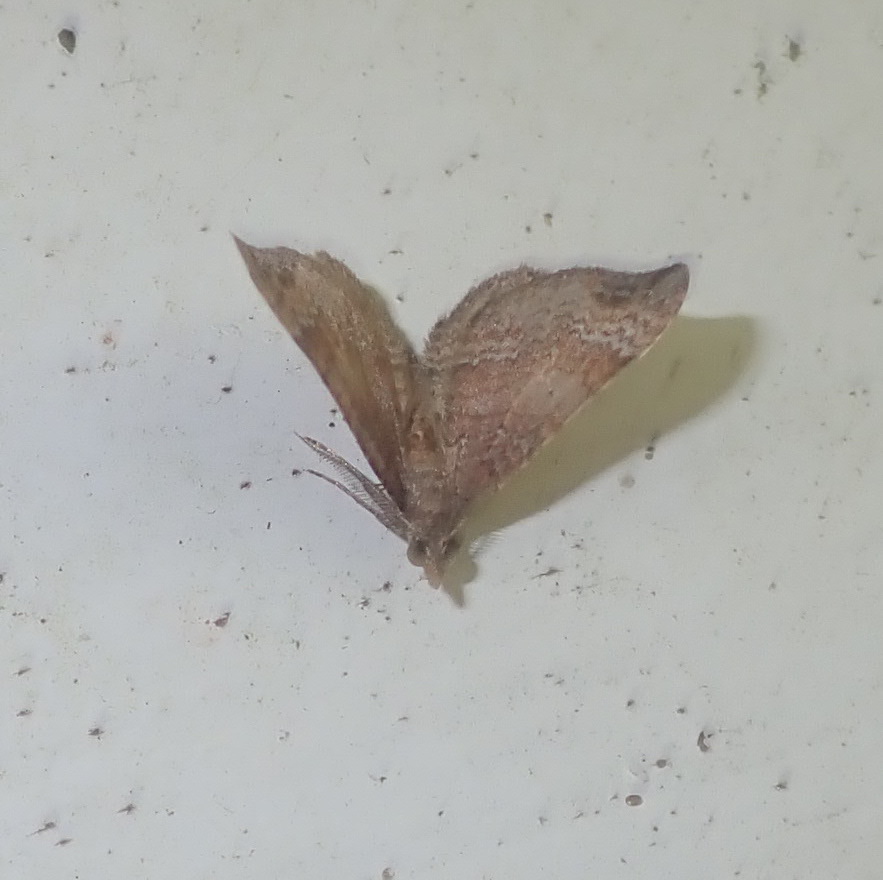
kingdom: Animalia
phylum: Arthropoda
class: Insecta
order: Lepidoptera
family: Geometridae
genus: Homodotis
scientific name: Homodotis megaspilata
